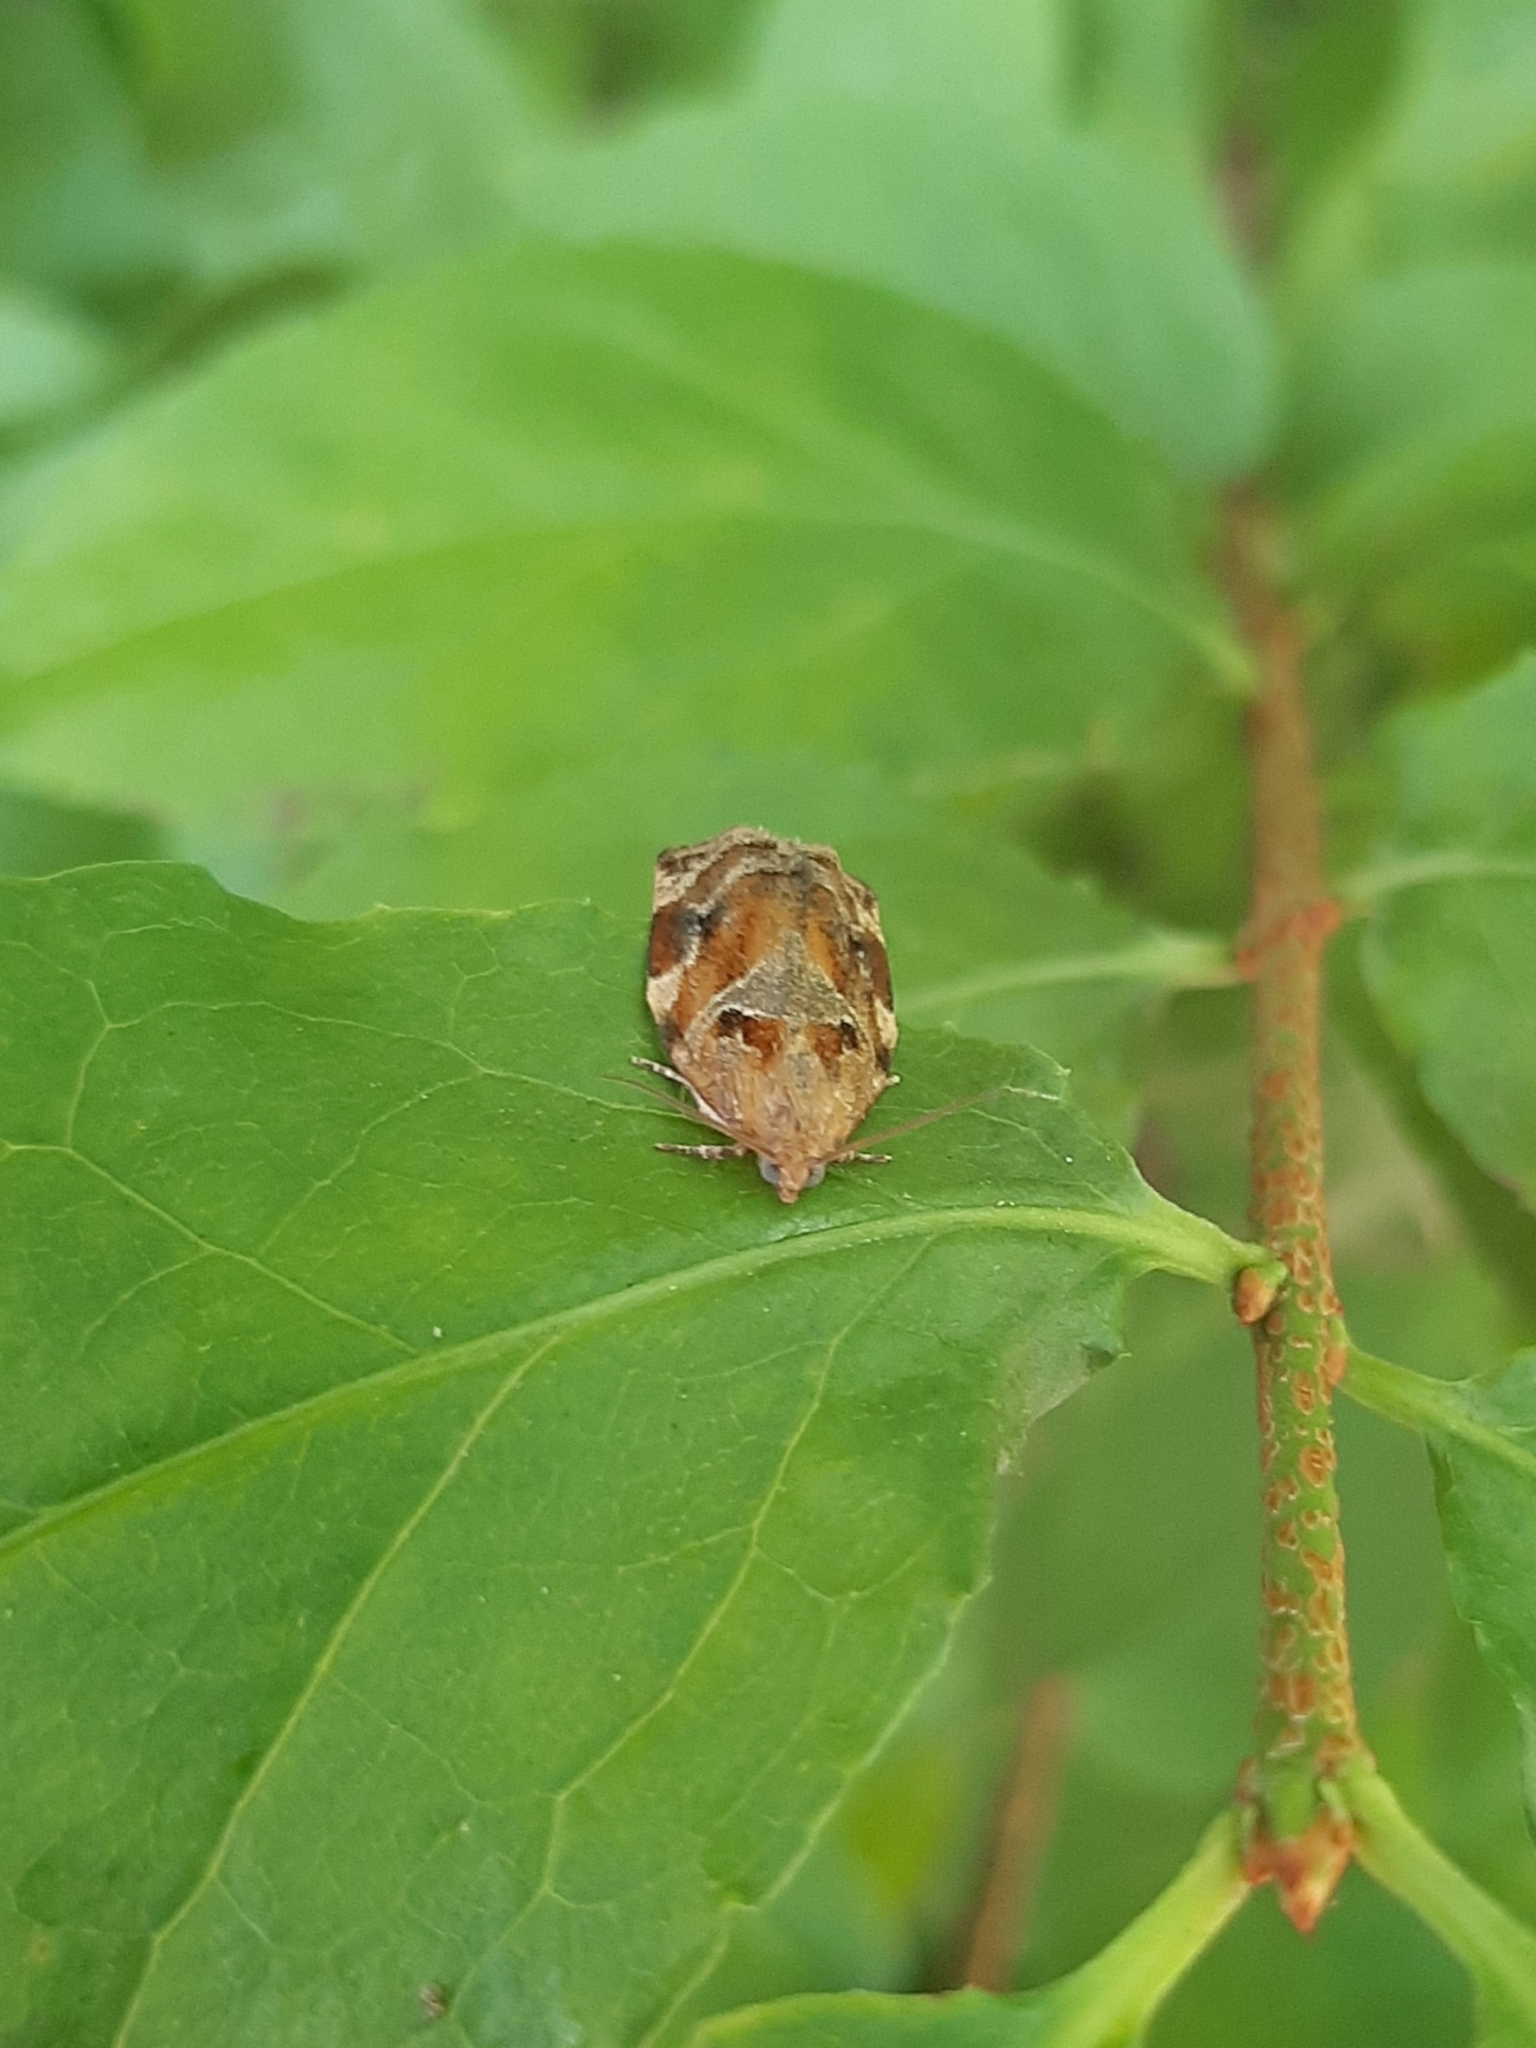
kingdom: Animalia
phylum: Arthropoda
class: Insecta
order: Lepidoptera
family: Tortricidae
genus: Archips
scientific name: Archips xylosteana
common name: Variegated golden tortrix
